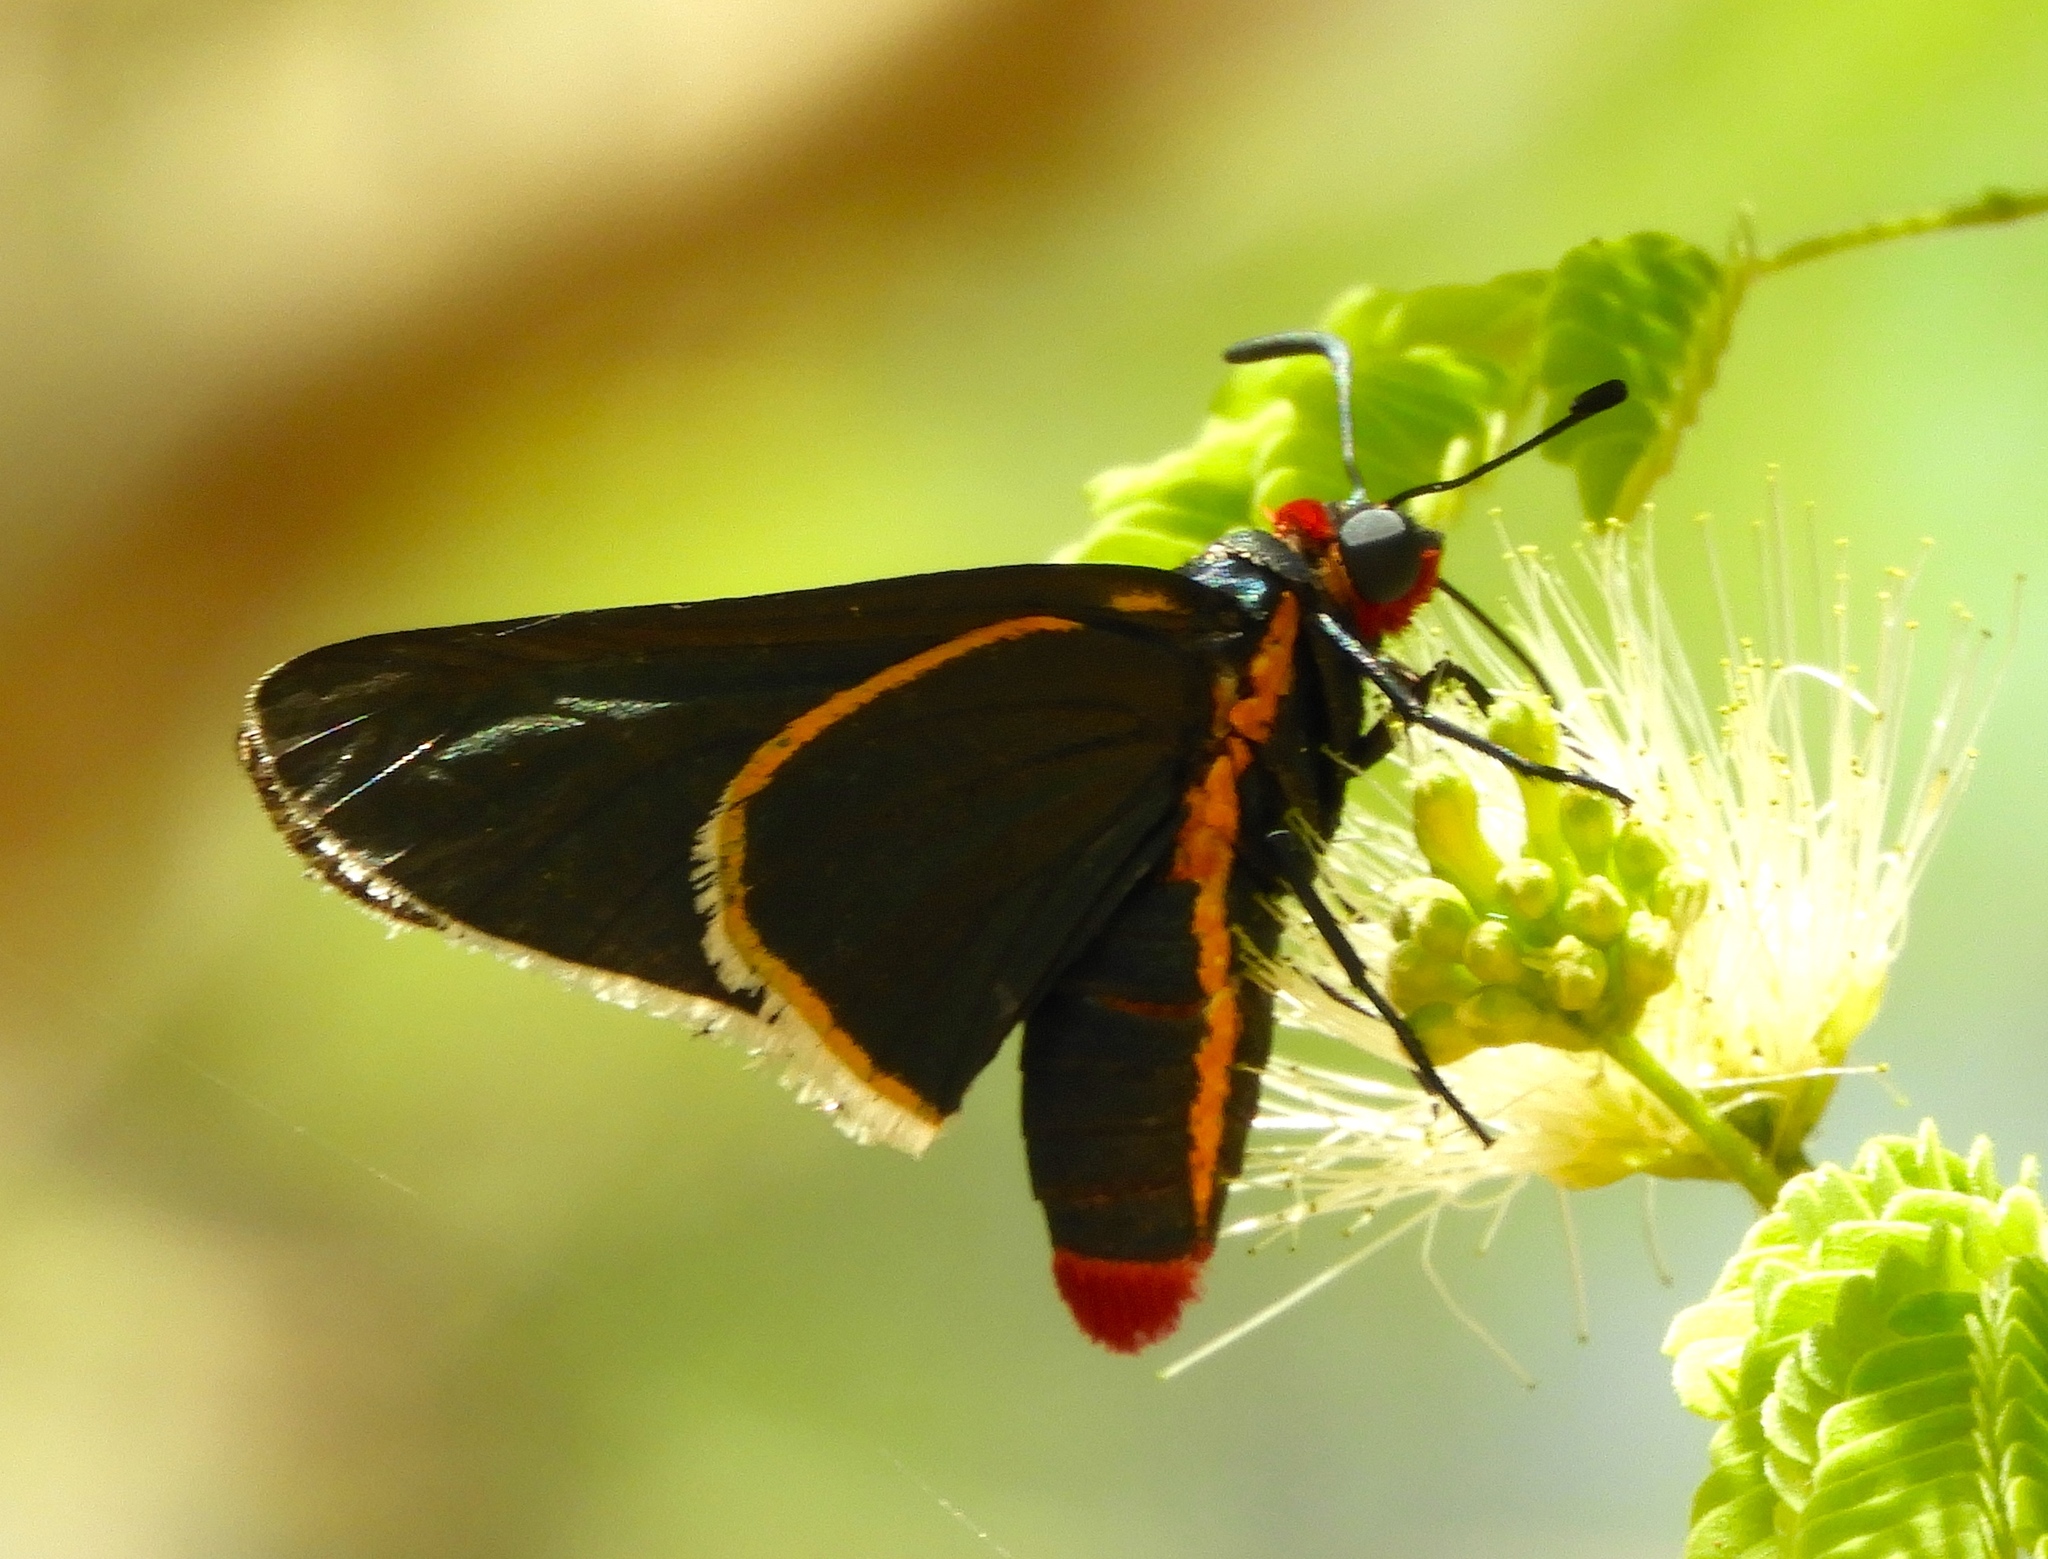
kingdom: Animalia
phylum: Arthropoda
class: Insecta
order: Lepidoptera
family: Hesperiidae
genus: Mysoria
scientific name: Mysoria affinis
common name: Red-collared firetip
